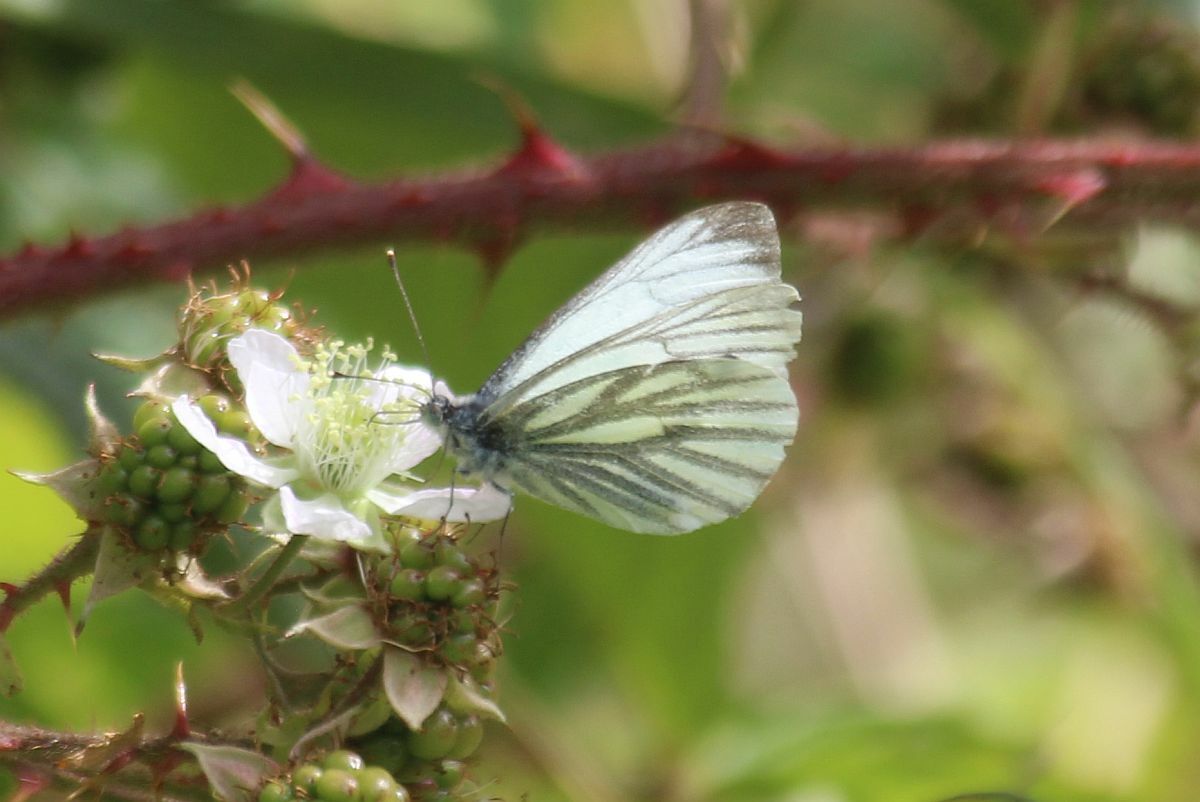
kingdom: Animalia
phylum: Arthropoda
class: Insecta
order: Lepidoptera
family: Pieridae
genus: Pieris
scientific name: Pieris napi
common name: Green-veined white
